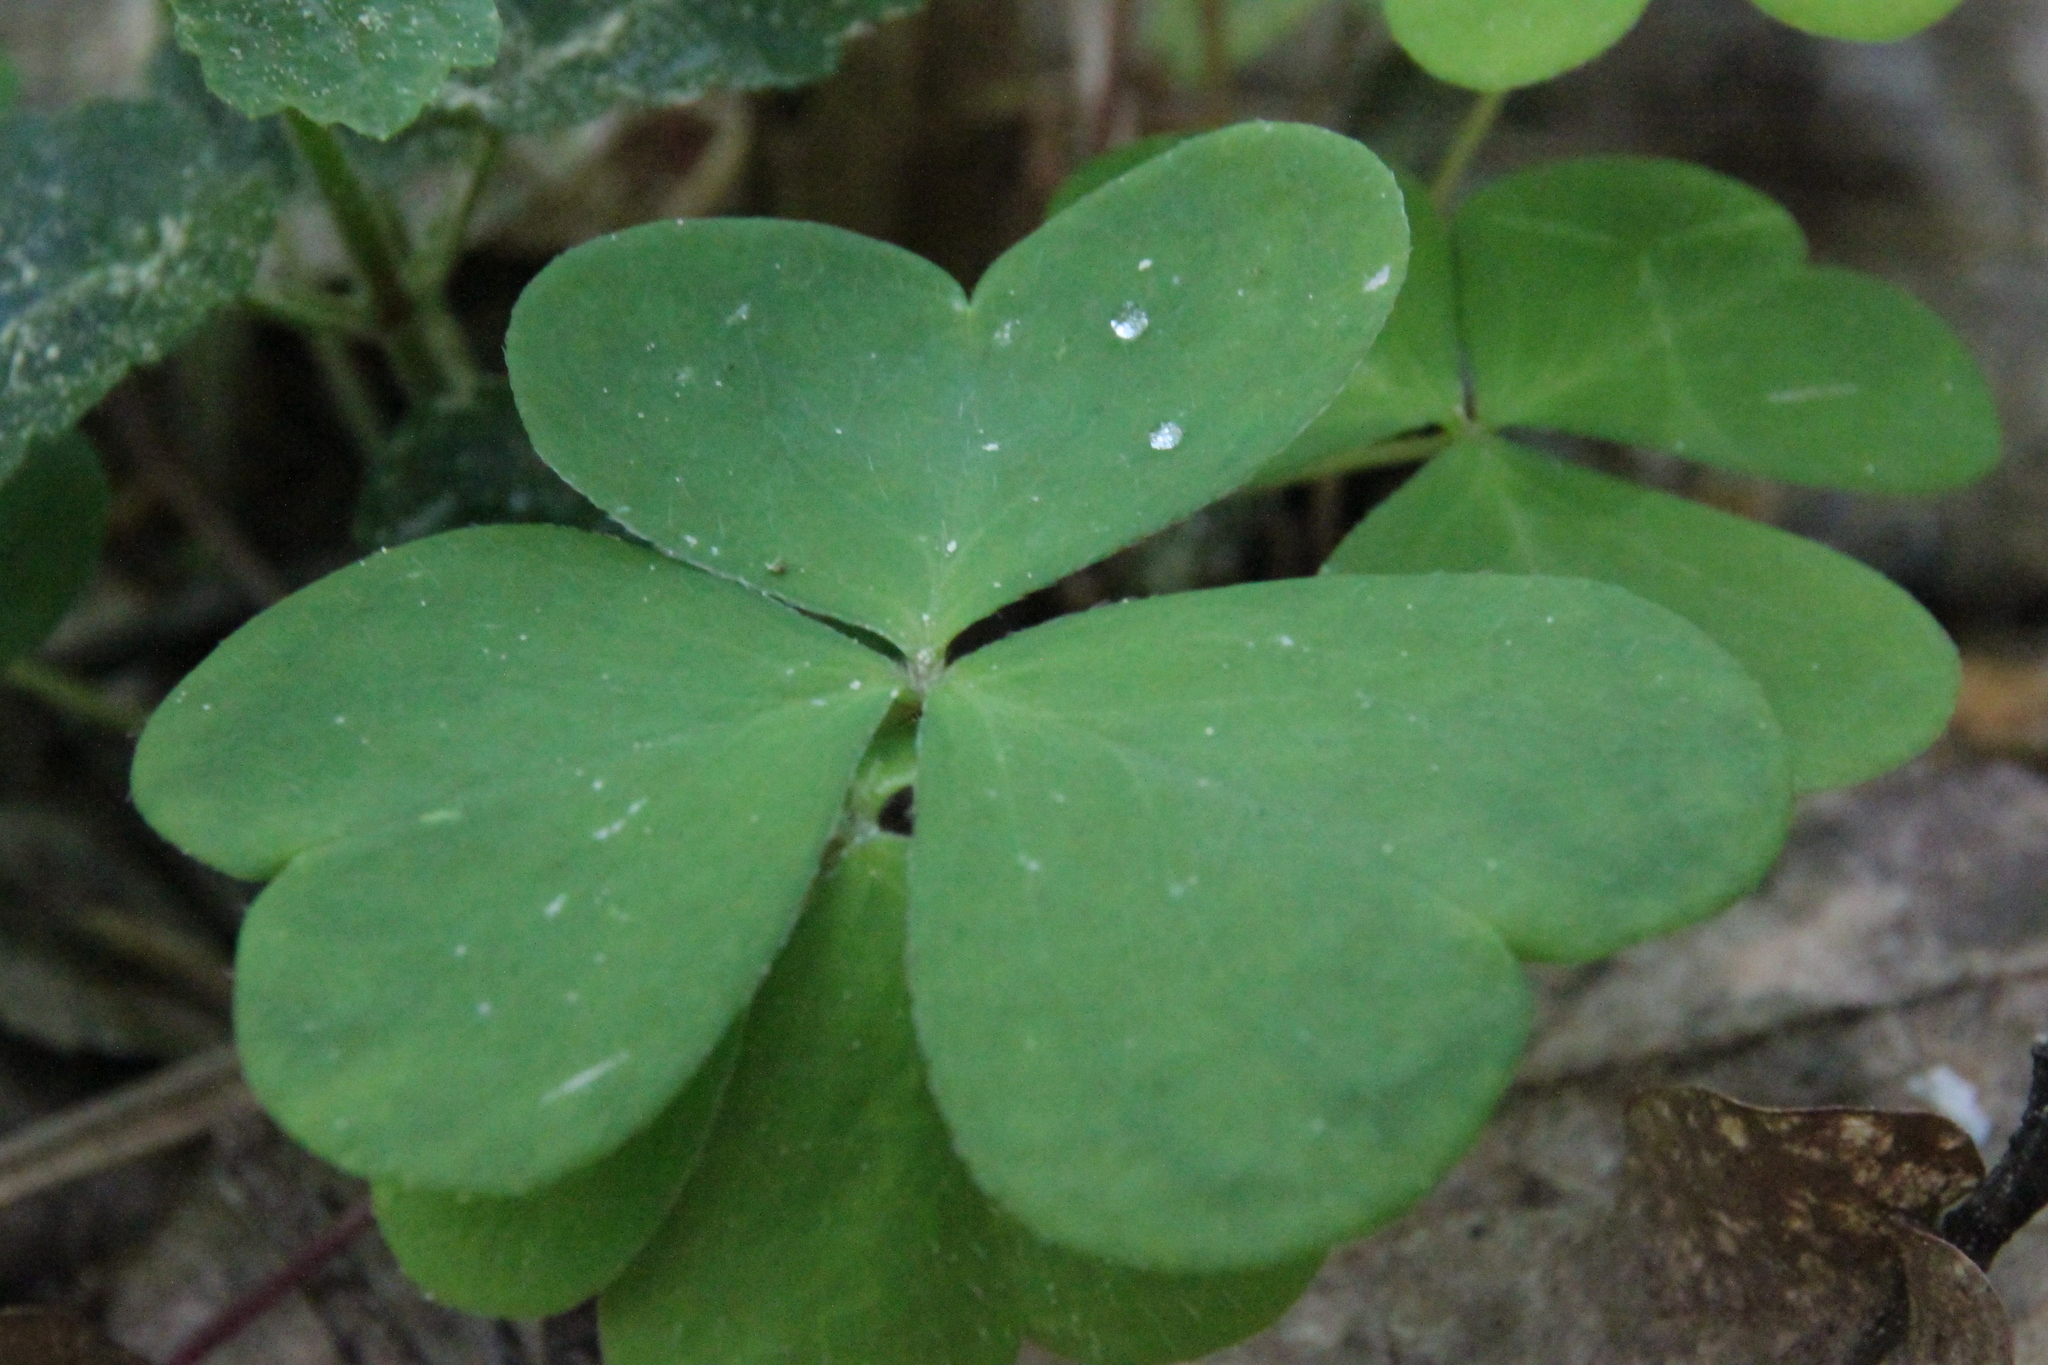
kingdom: Plantae
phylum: Tracheophyta
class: Magnoliopsida
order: Oxalidales
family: Oxalidaceae
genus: Oxalis
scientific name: Oxalis acetosella
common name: Wood-sorrel
